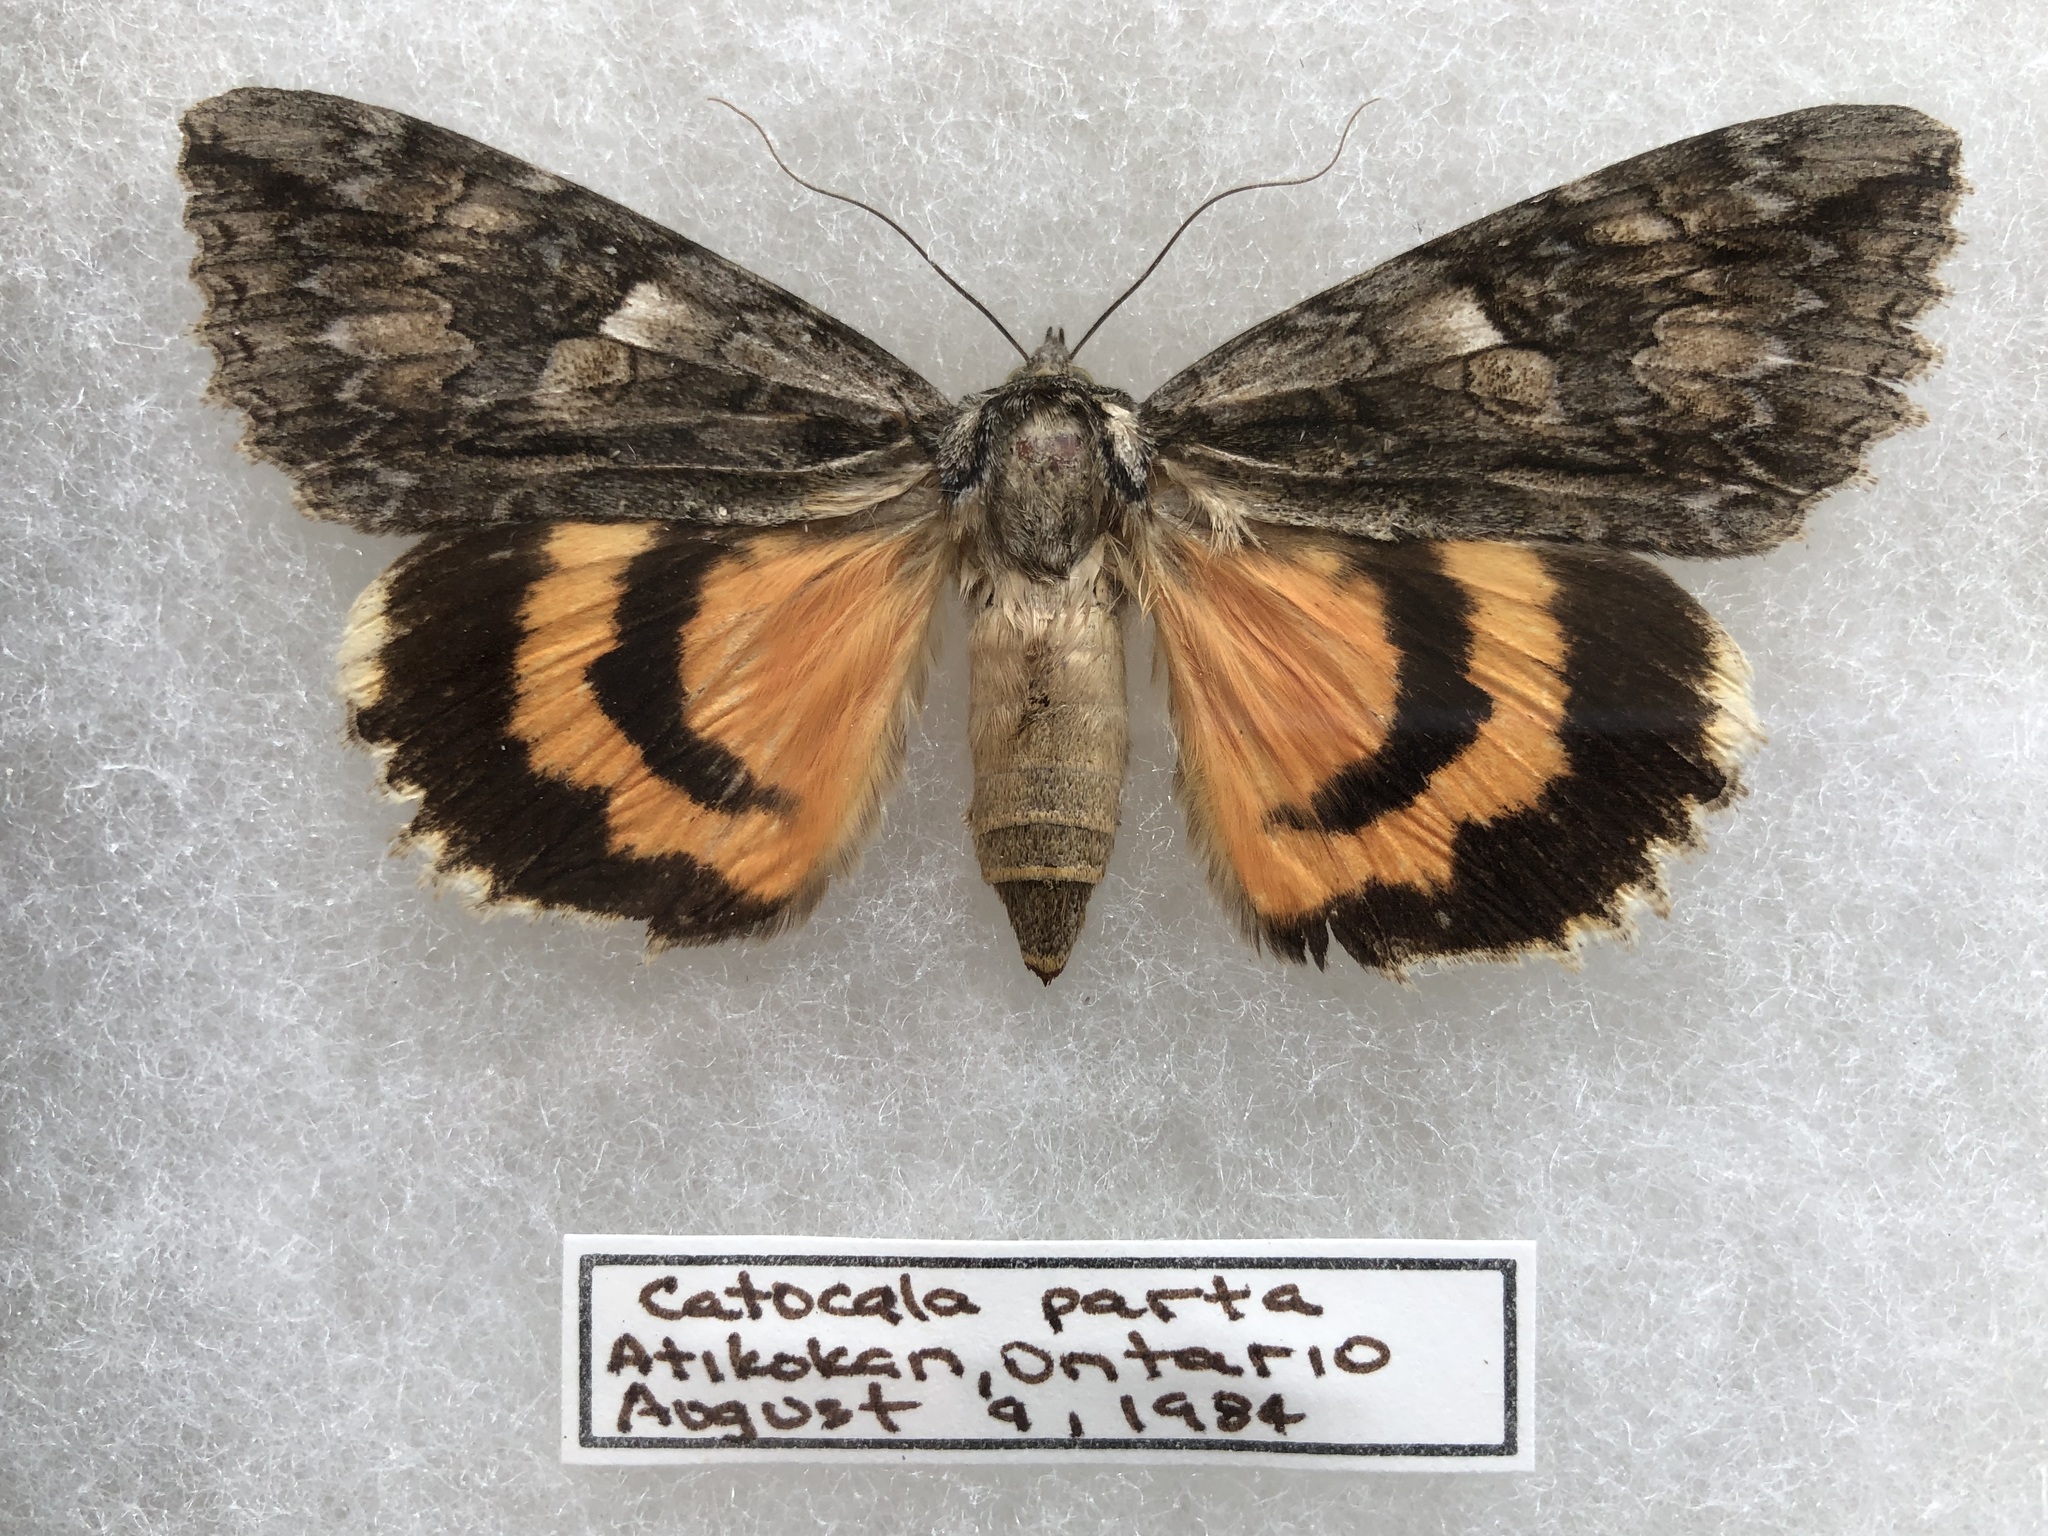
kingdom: Animalia
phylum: Arthropoda
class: Insecta
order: Lepidoptera
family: Erebidae
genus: Catocala
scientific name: Catocala parta
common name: Mother underwing
